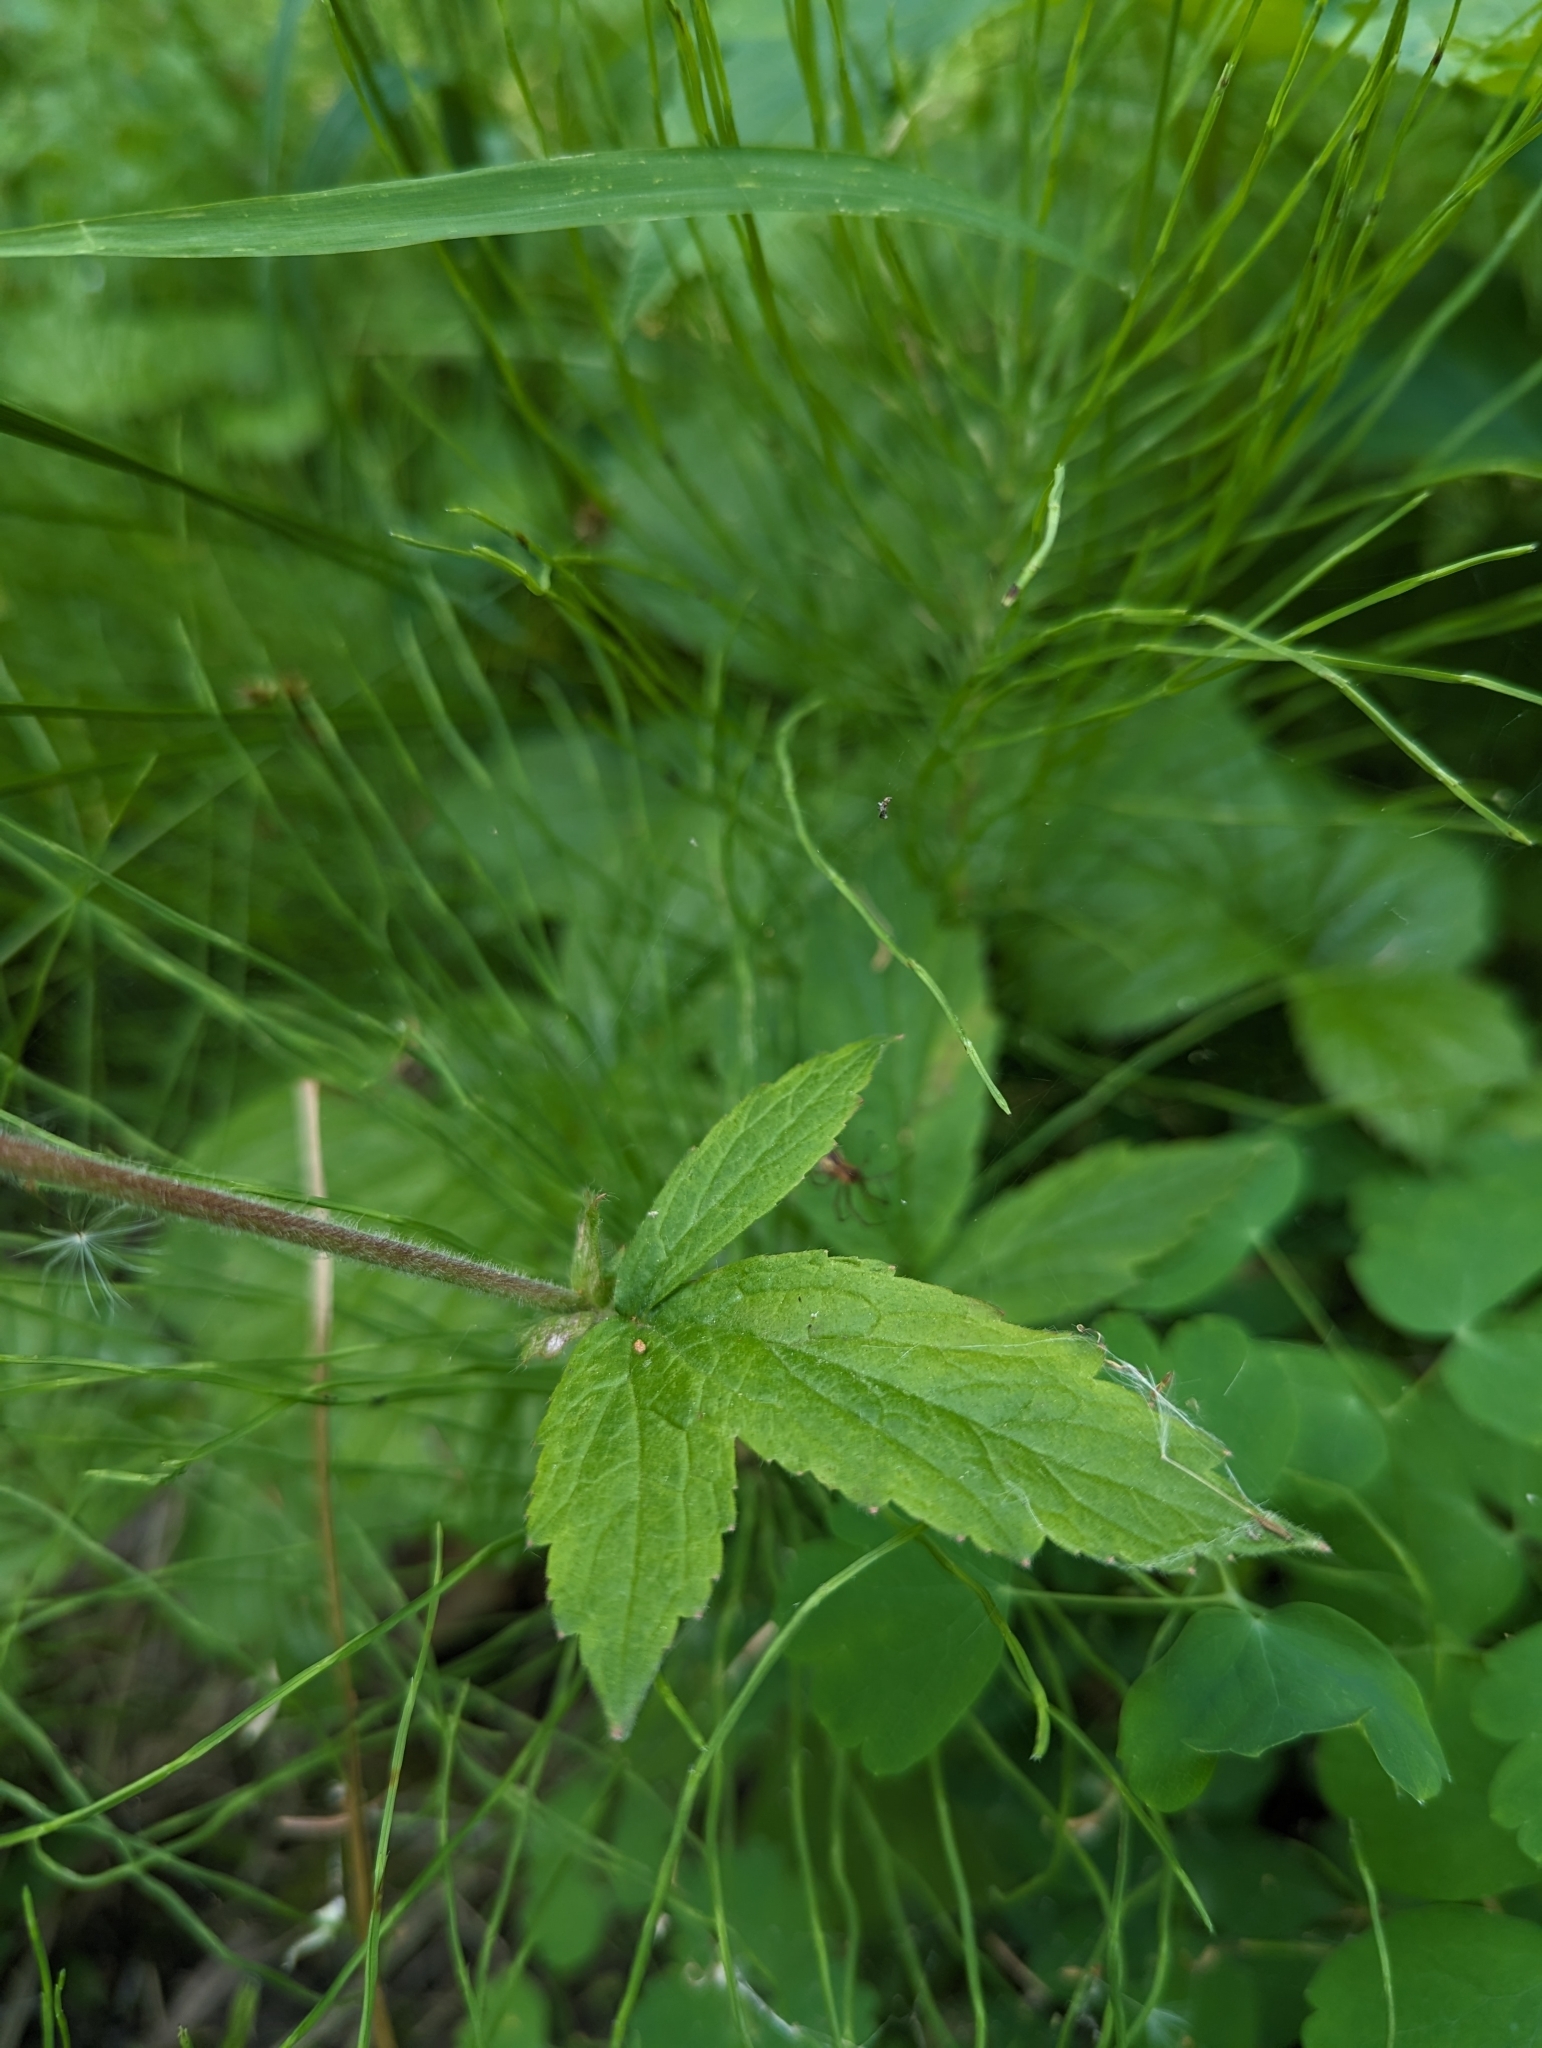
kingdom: Plantae
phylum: Tracheophyta
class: Magnoliopsida
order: Rosales
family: Rosaceae
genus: Geum
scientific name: Geum rivale
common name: Water avens
